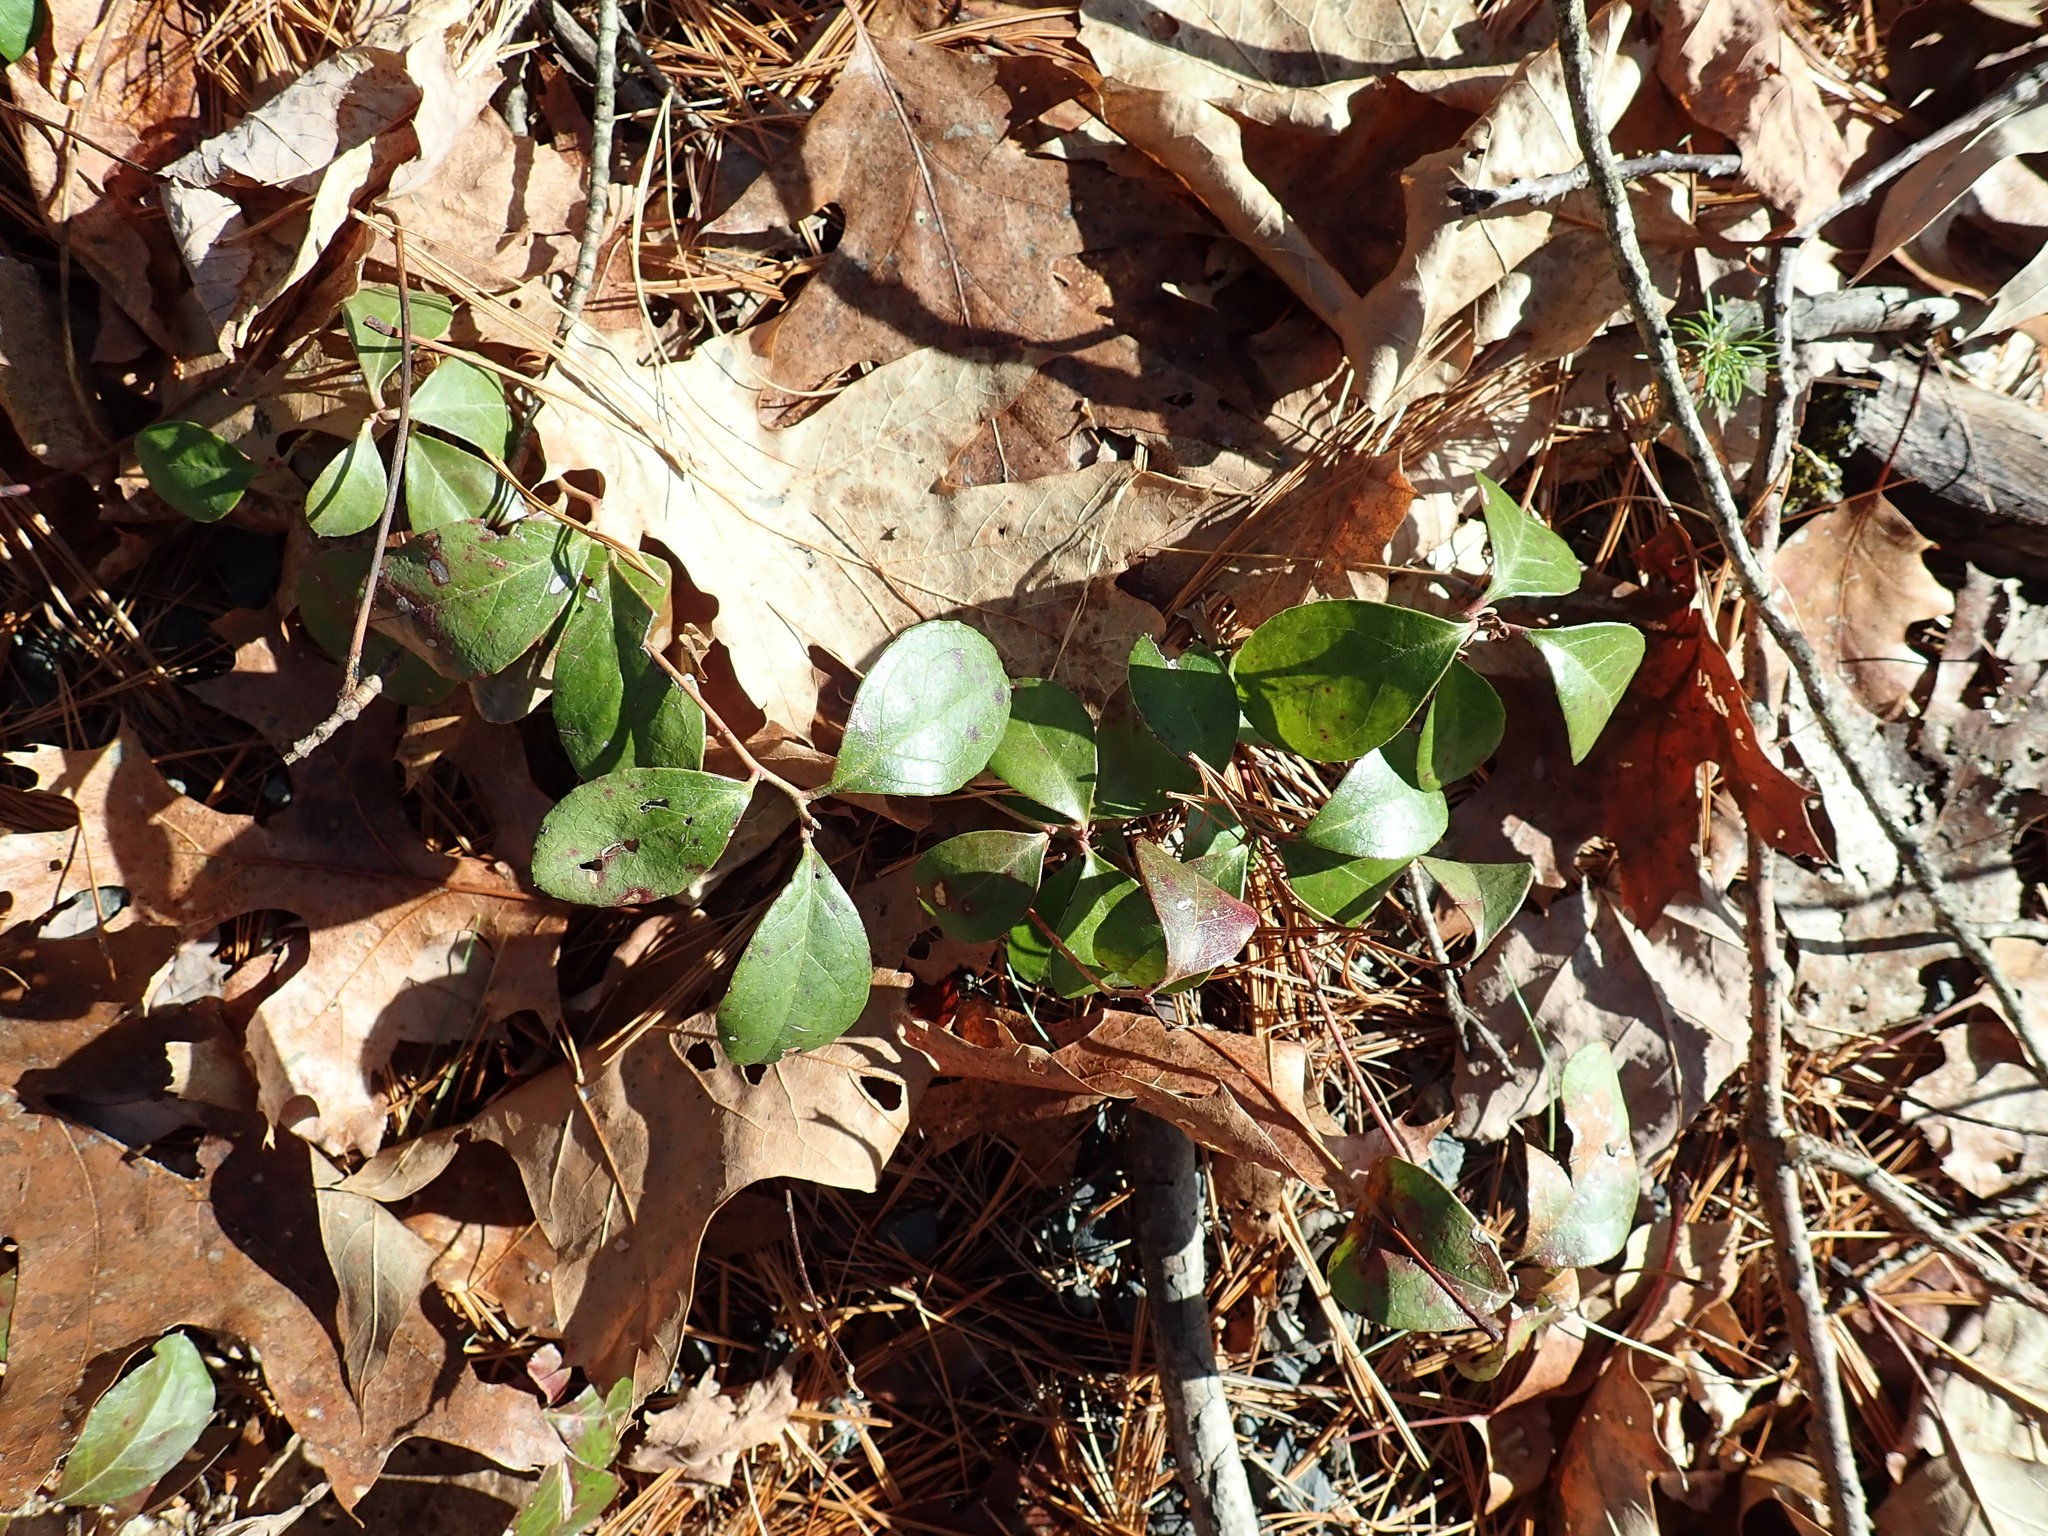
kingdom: Plantae
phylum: Tracheophyta
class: Magnoliopsida
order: Ericales
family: Ericaceae
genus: Gaultheria
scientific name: Gaultheria procumbens
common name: Checkerberry
